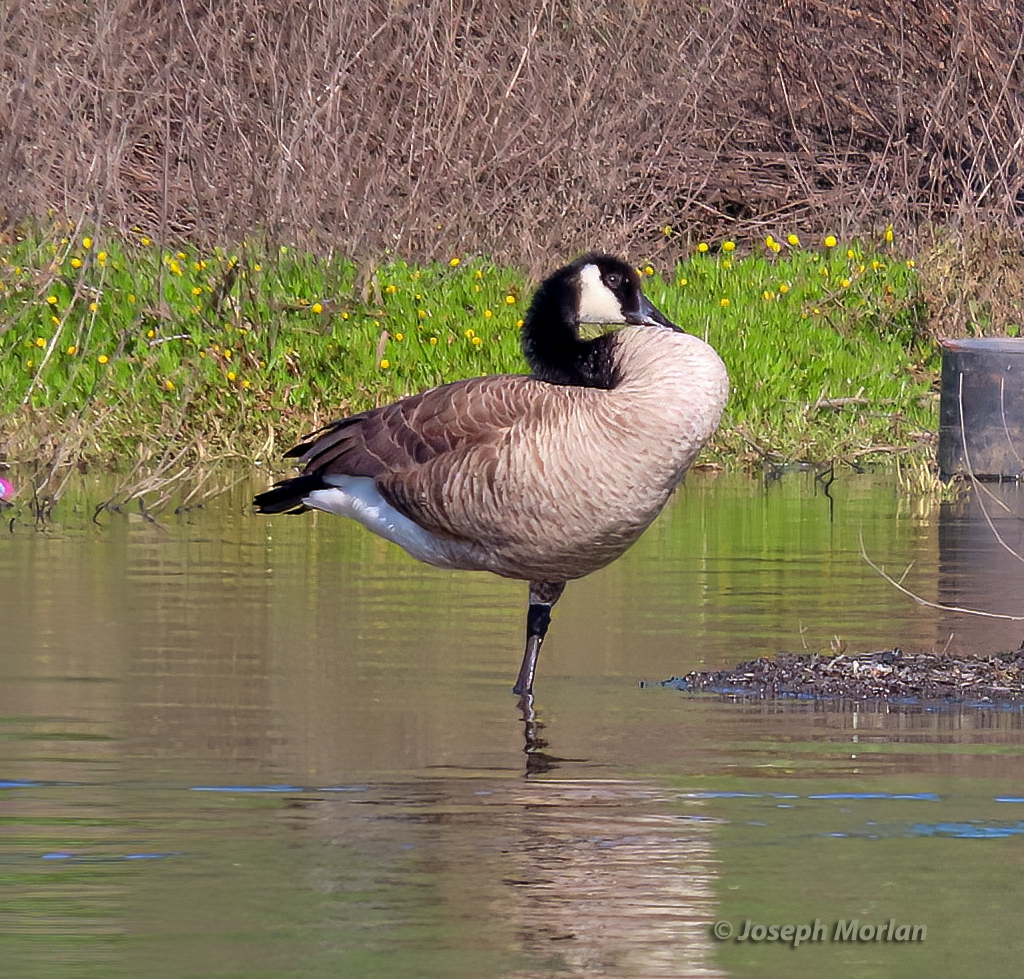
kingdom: Animalia
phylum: Chordata
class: Aves
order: Anseriformes
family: Anatidae
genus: Branta
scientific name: Branta canadensis
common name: Canada goose
